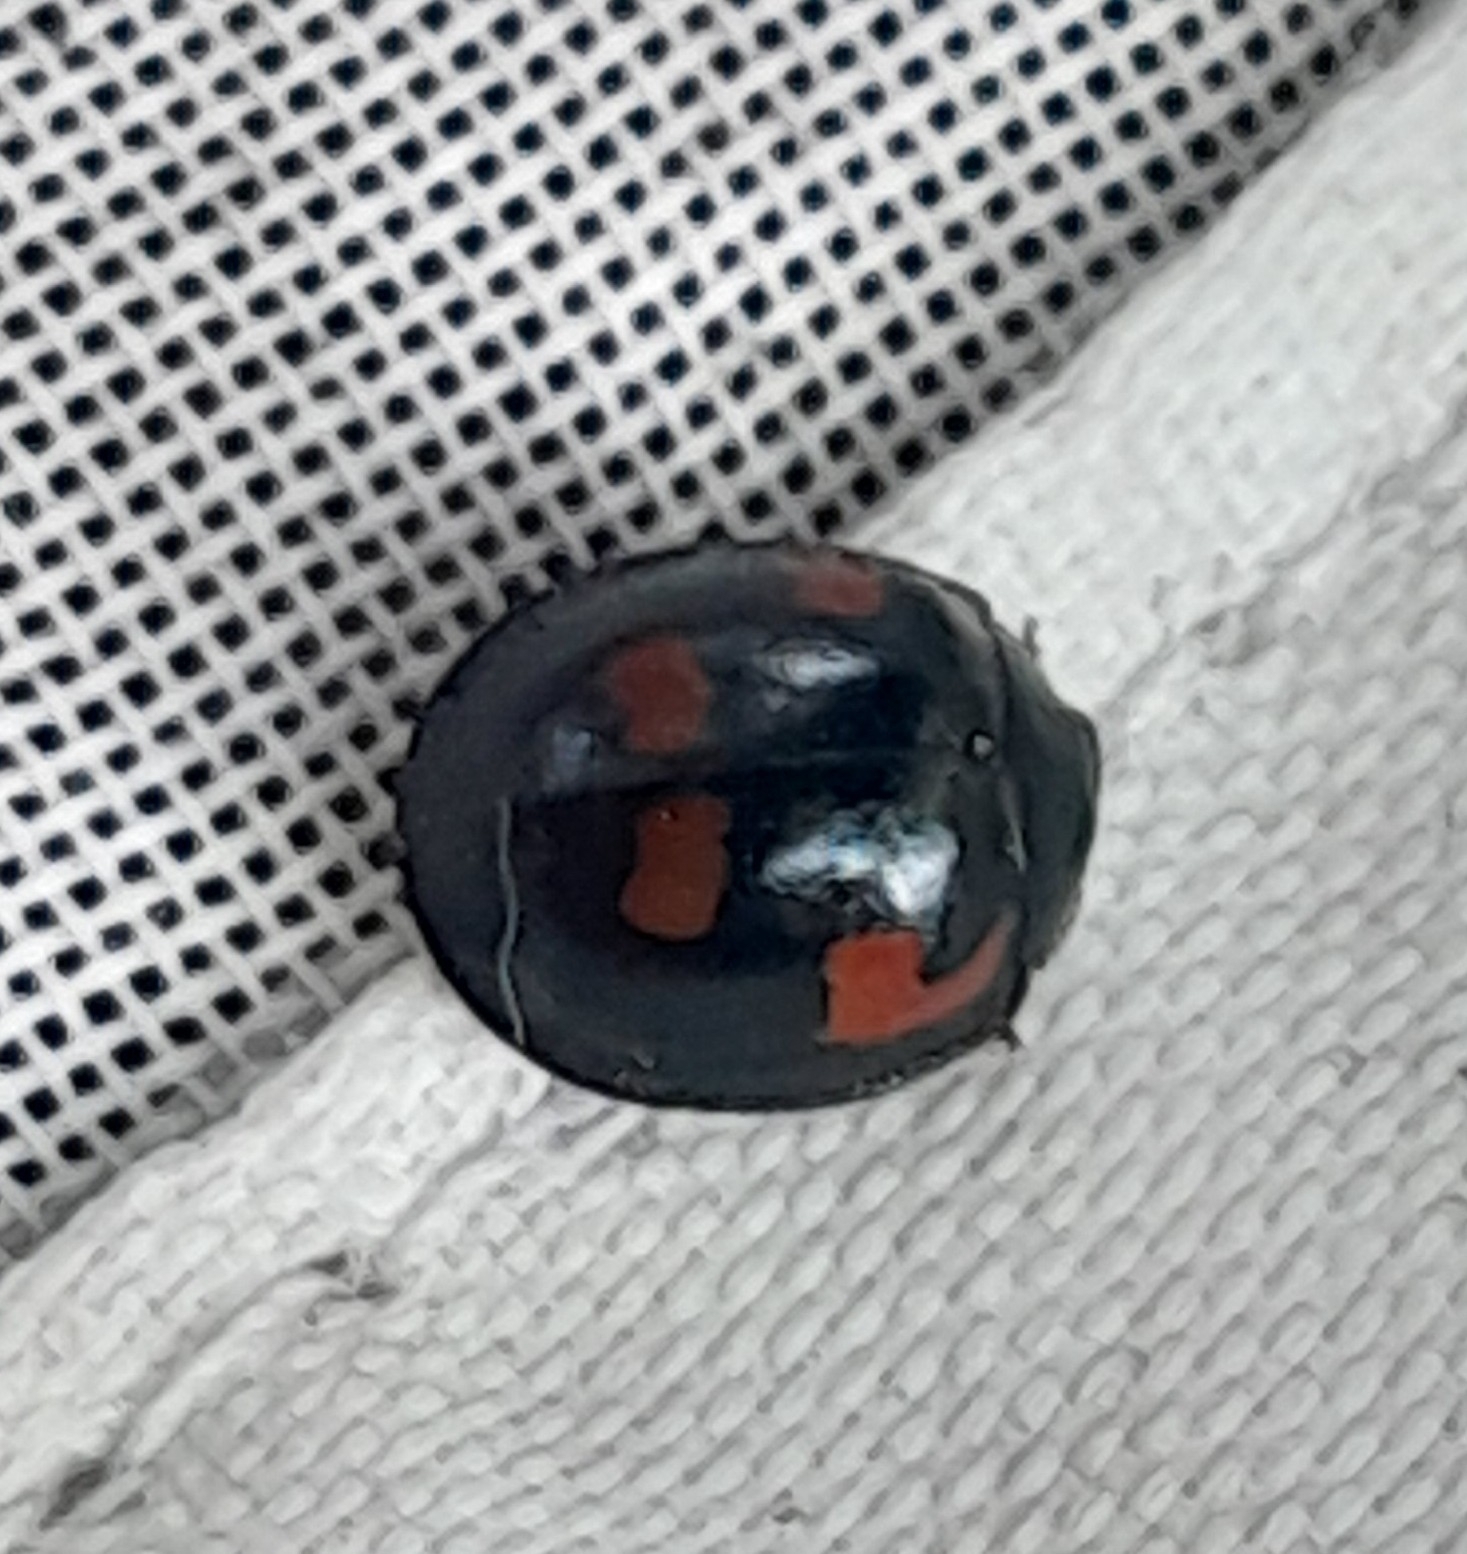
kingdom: Animalia
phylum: Arthropoda
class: Insecta
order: Coleoptera
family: Coccinellidae
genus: Brumus
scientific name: Brumus quadripustulatus
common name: Ladybird beetle
